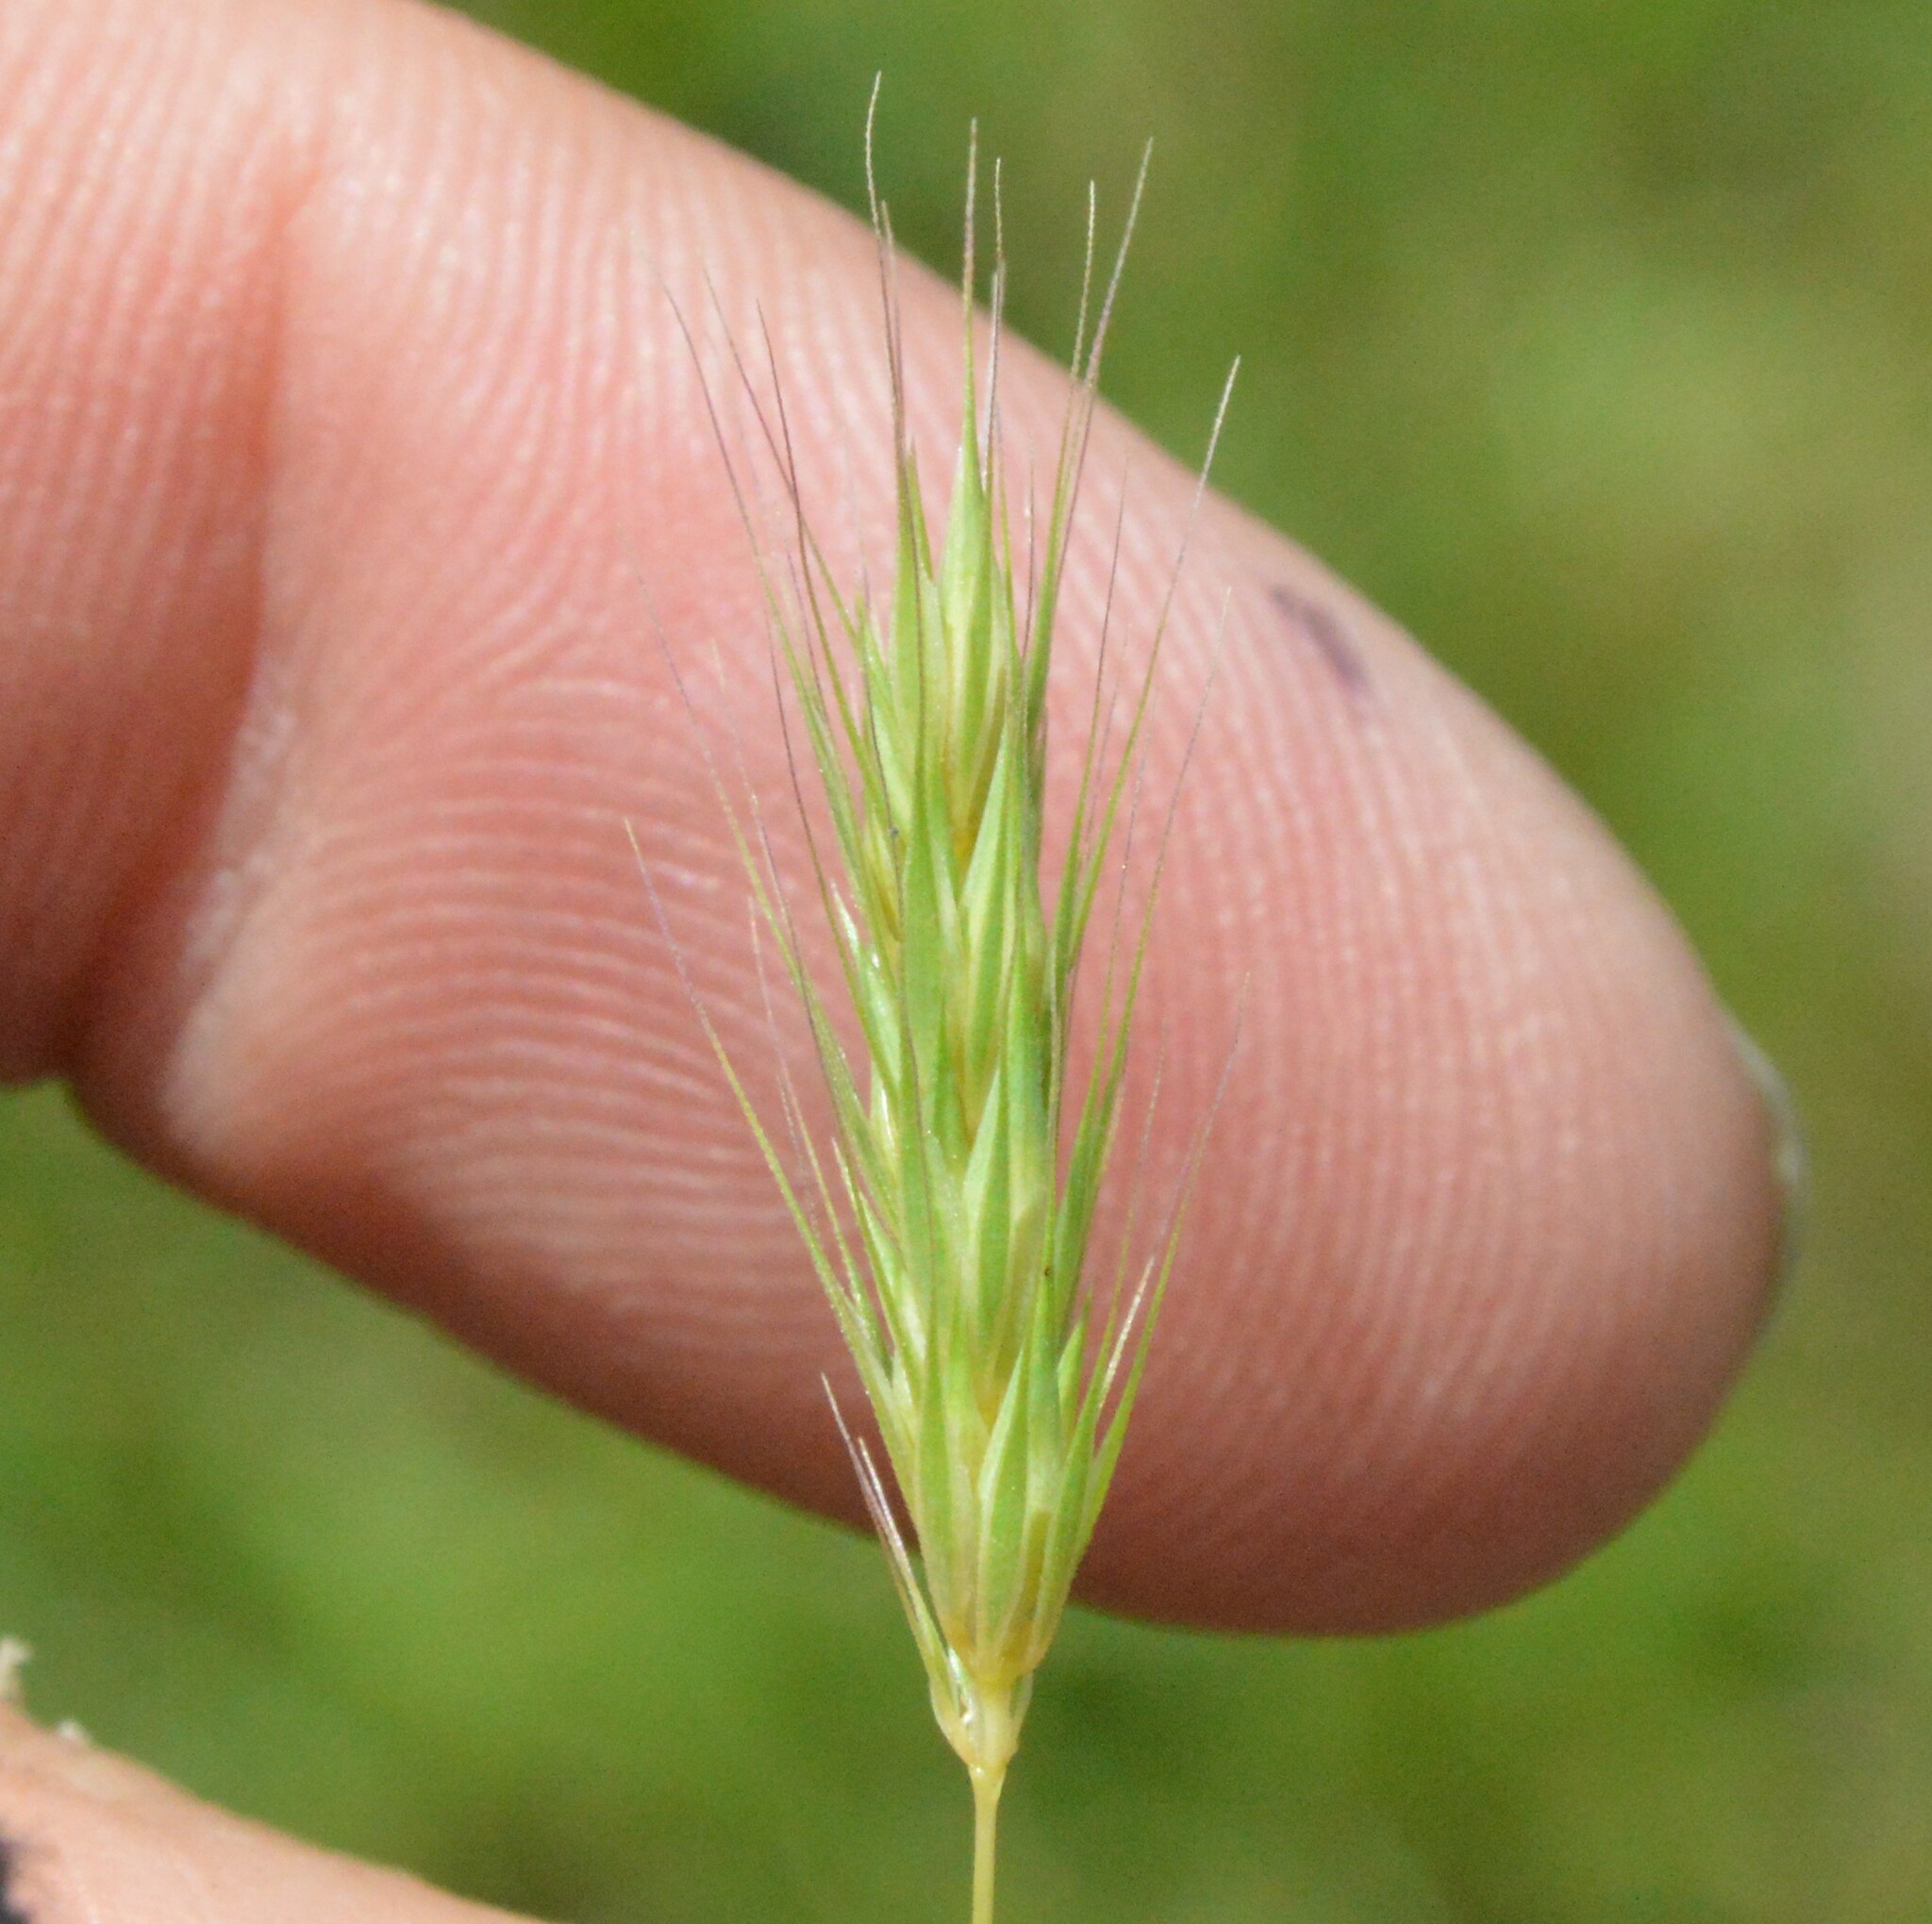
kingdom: Plantae
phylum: Tracheophyta
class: Liliopsida
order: Poales
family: Poaceae
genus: Hordeum
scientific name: Hordeum pusillum
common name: Little barley
